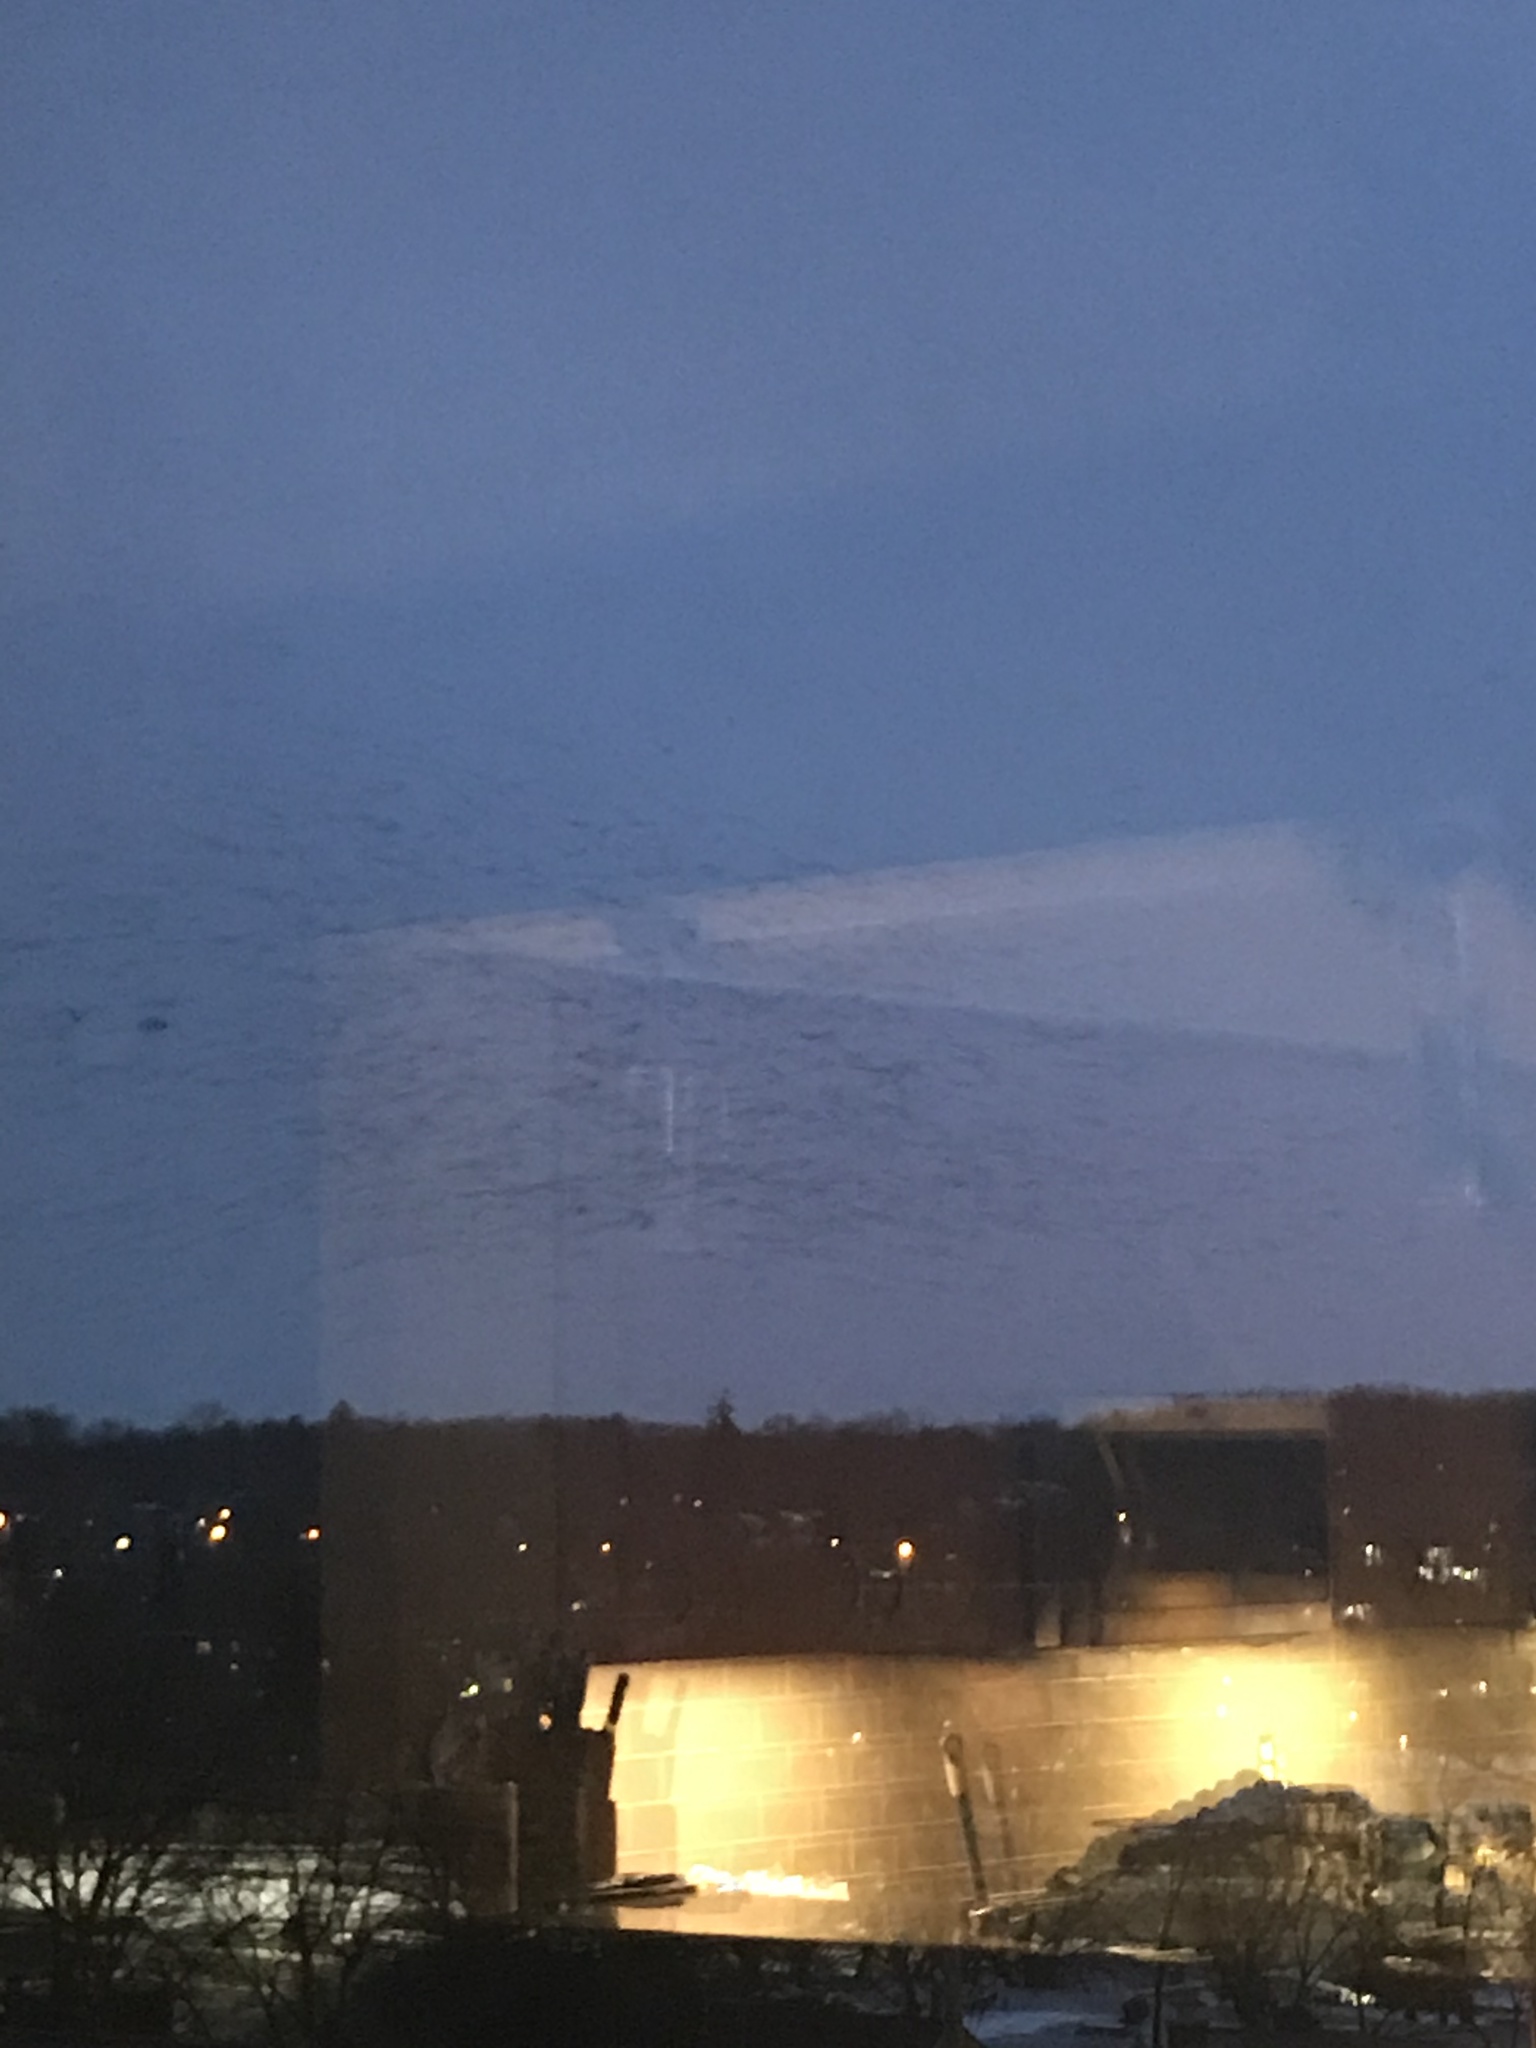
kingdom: Animalia
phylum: Chordata
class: Aves
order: Passeriformes
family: Corvidae
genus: Corvus
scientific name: Corvus brachyrhynchos
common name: American crow
